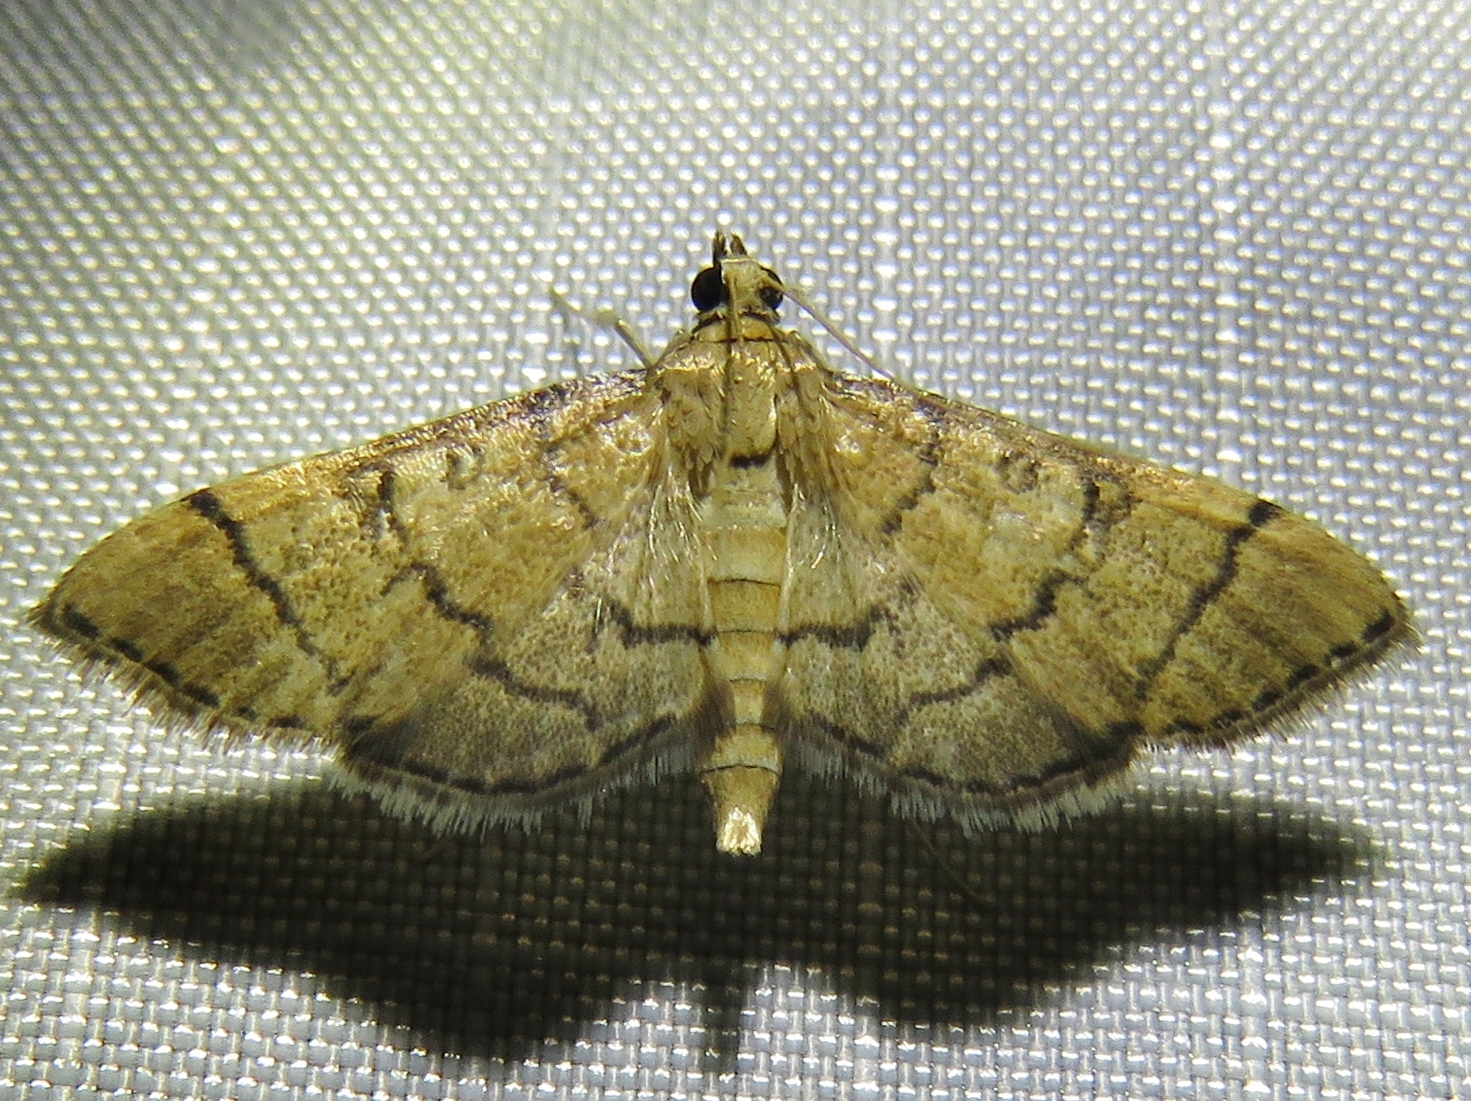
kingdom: Animalia
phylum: Arthropoda
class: Insecta
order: Lepidoptera
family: Crambidae
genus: Lamprosema
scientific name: Lamprosema Blepharomastix ranalis
